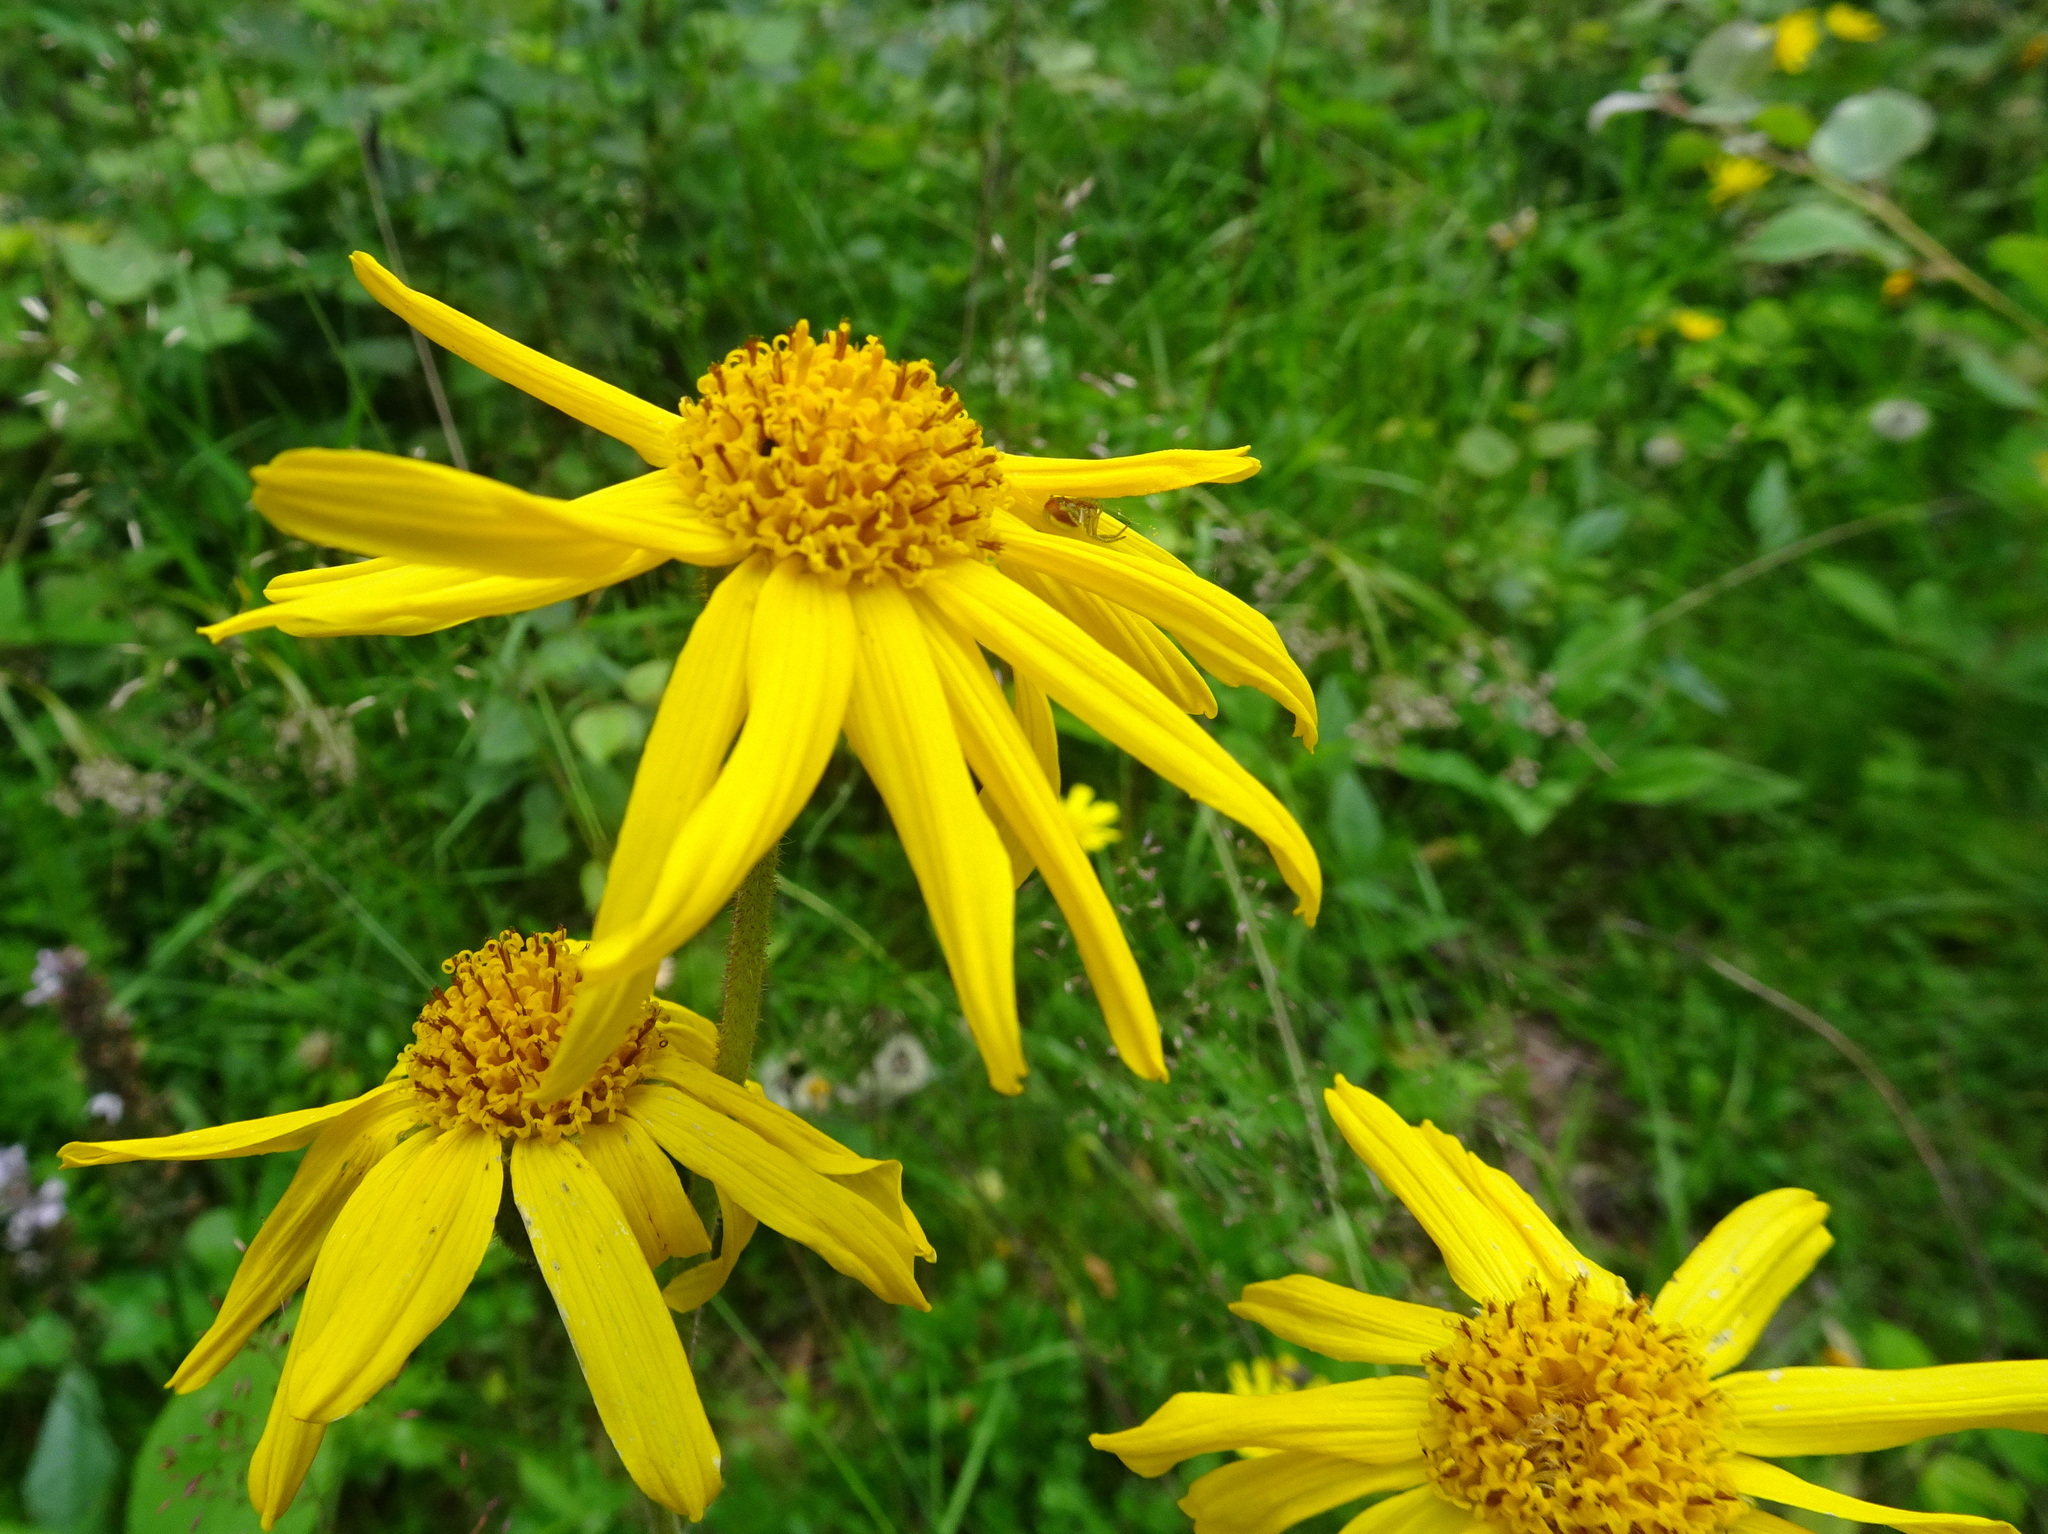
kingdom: Plantae
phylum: Tracheophyta
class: Magnoliopsida
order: Asterales
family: Asteraceae
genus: Arnica
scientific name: Arnica montana
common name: Leopard's bane
